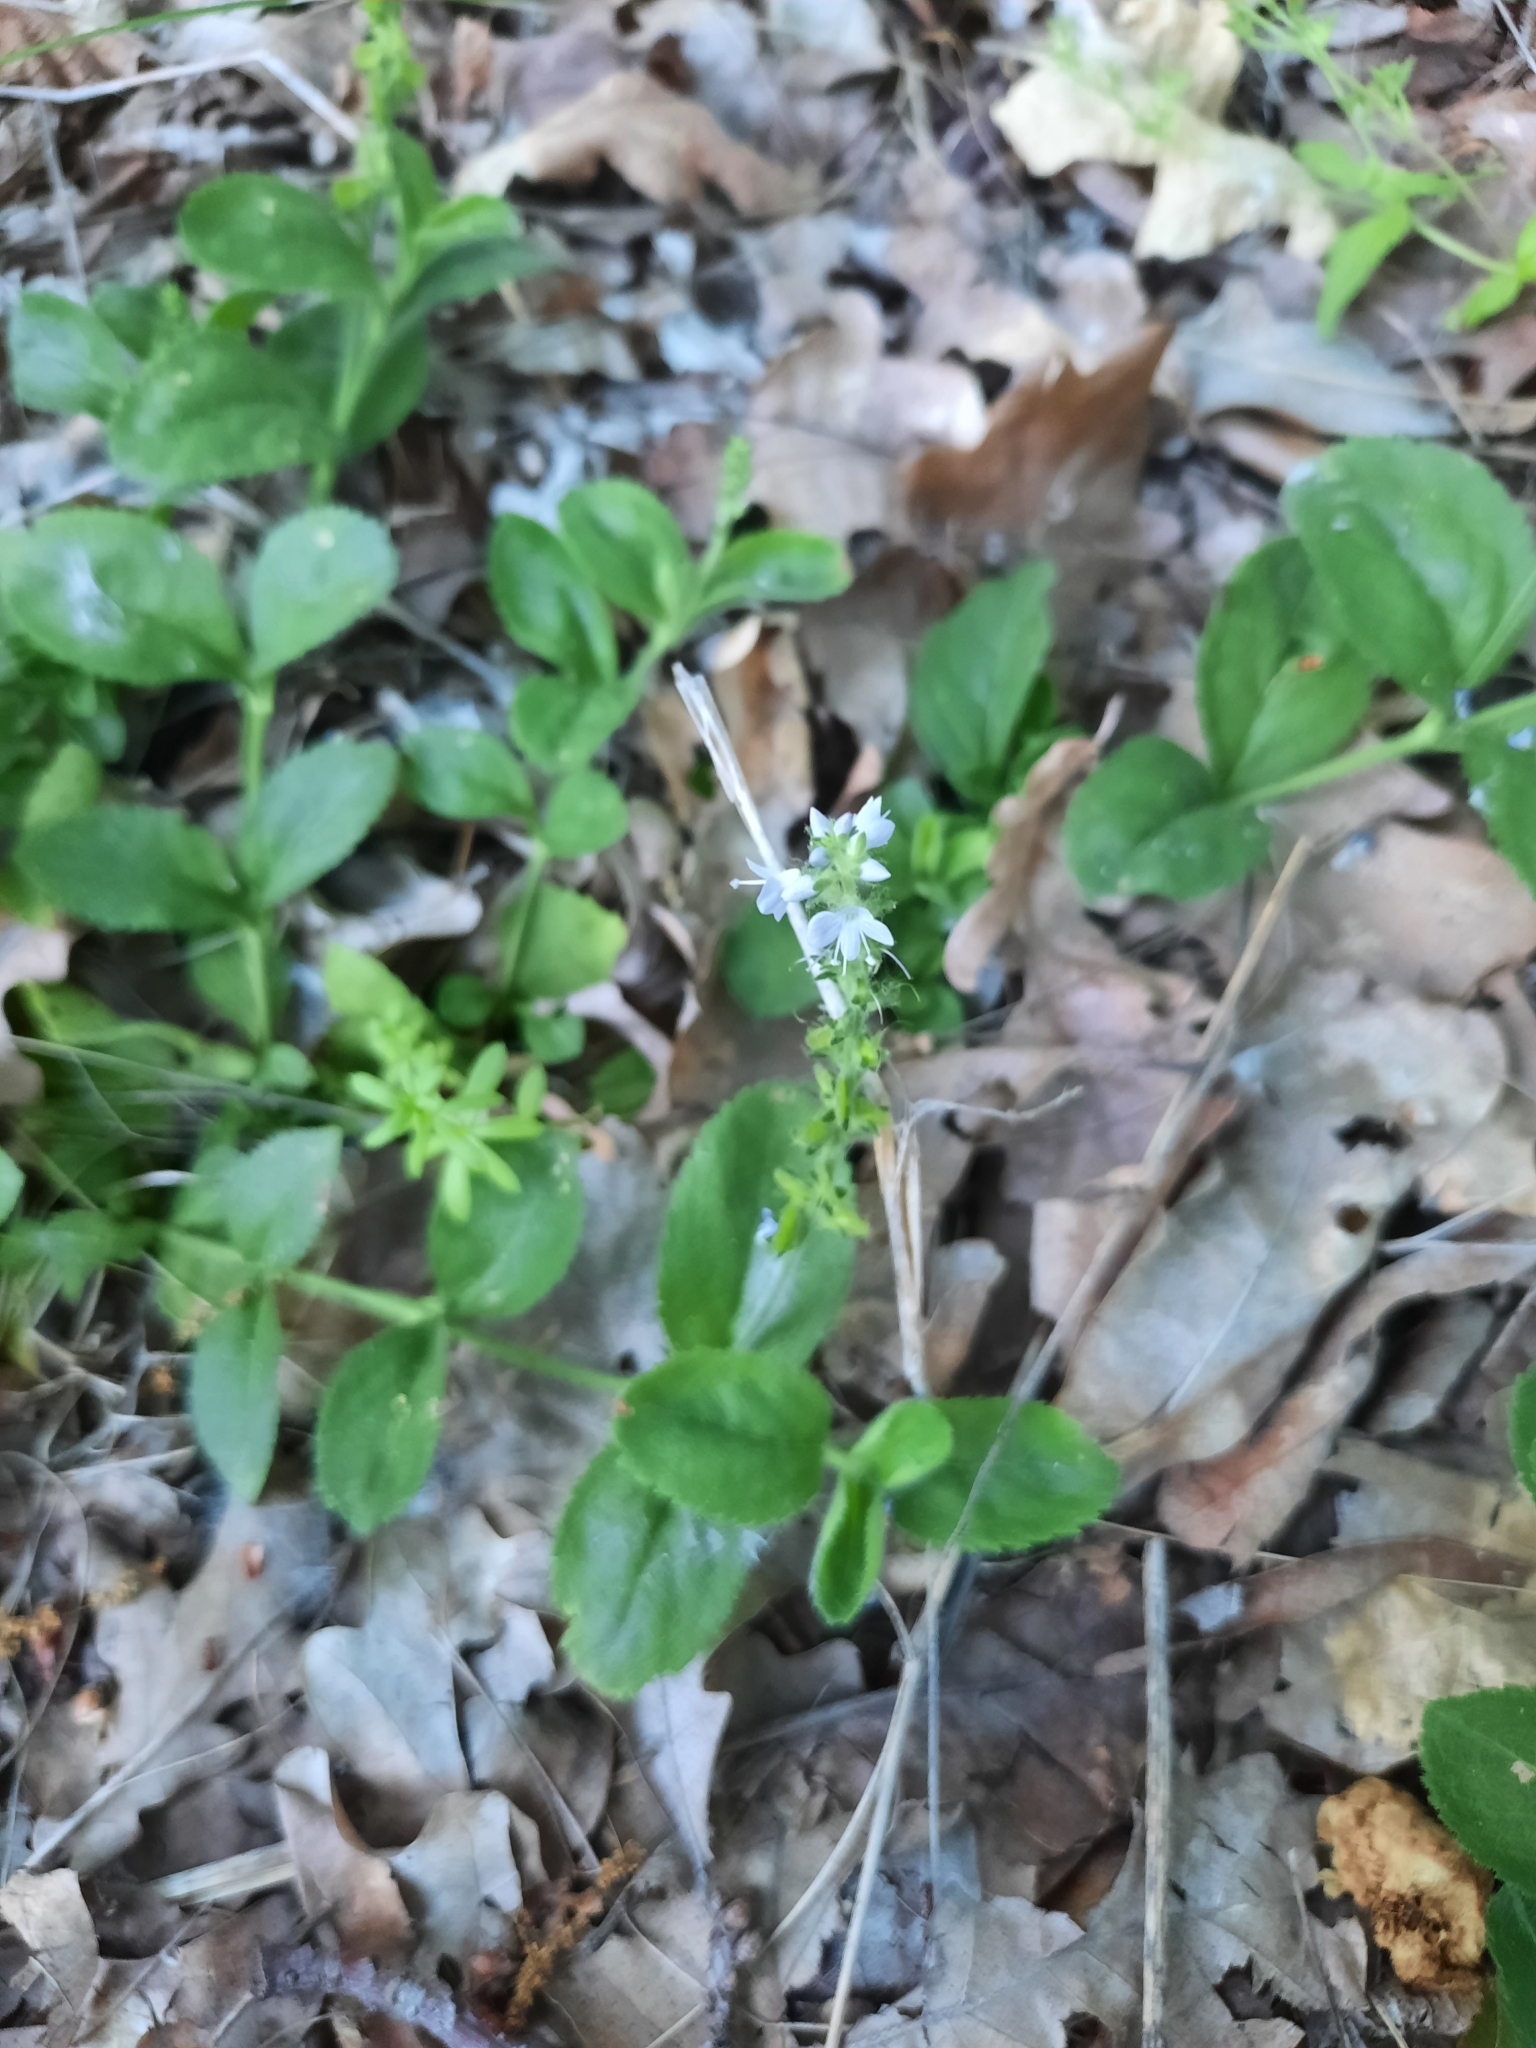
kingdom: Plantae
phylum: Tracheophyta
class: Magnoliopsida
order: Lamiales
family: Plantaginaceae
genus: Veronica
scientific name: Veronica officinalis
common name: Common speedwell
